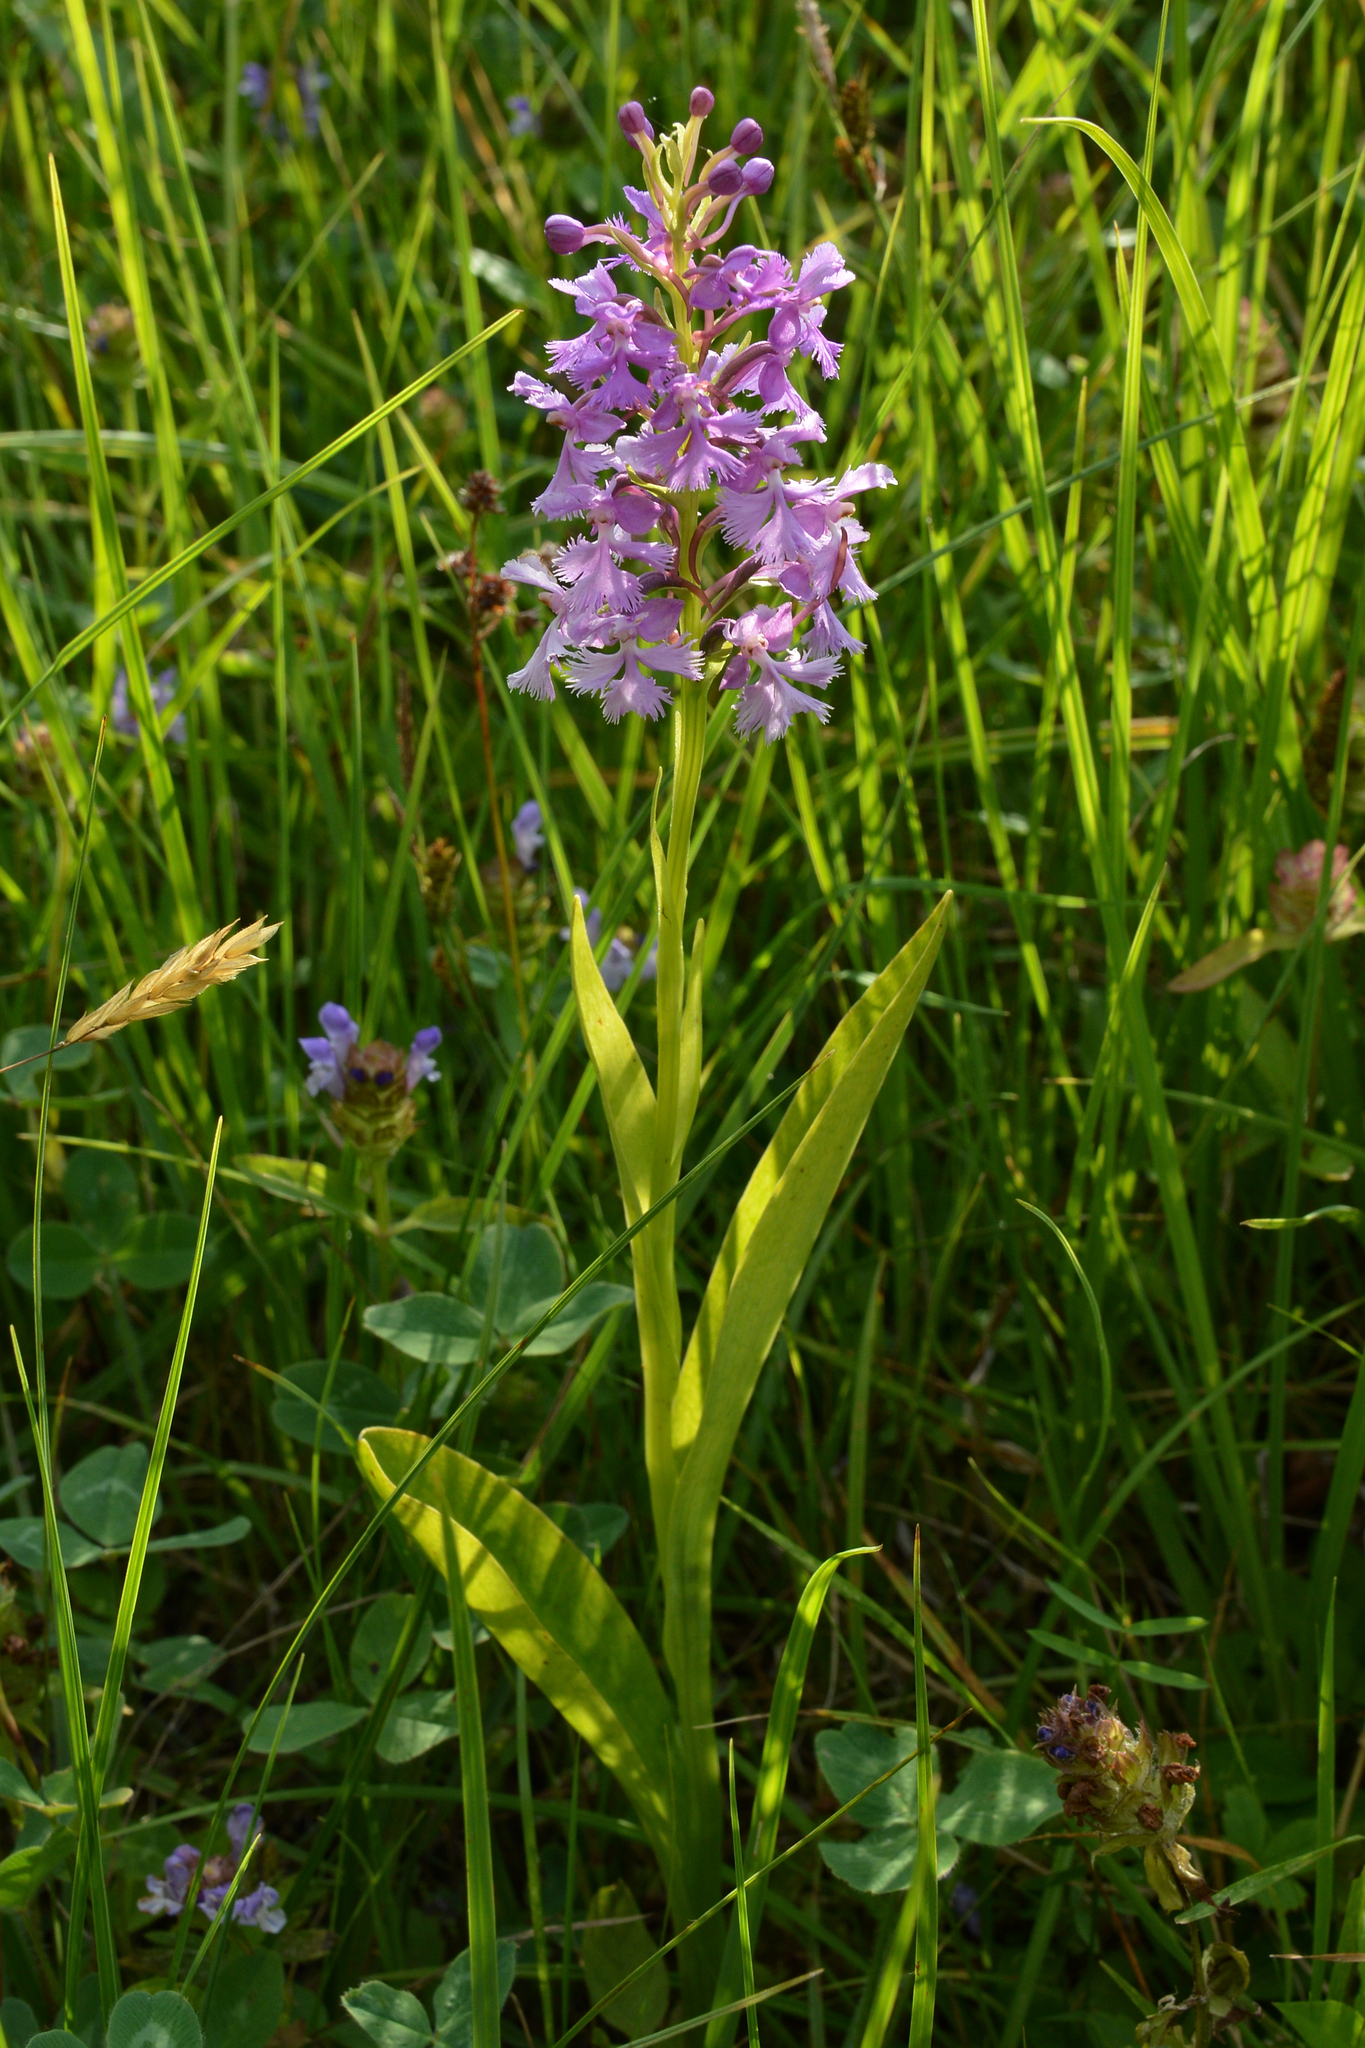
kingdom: Plantae
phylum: Tracheophyta
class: Liliopsida
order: Asparagales
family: Orchidaceae
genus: Platanthera
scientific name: Platanthera psycodes
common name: Lesser purple fringed orchid
